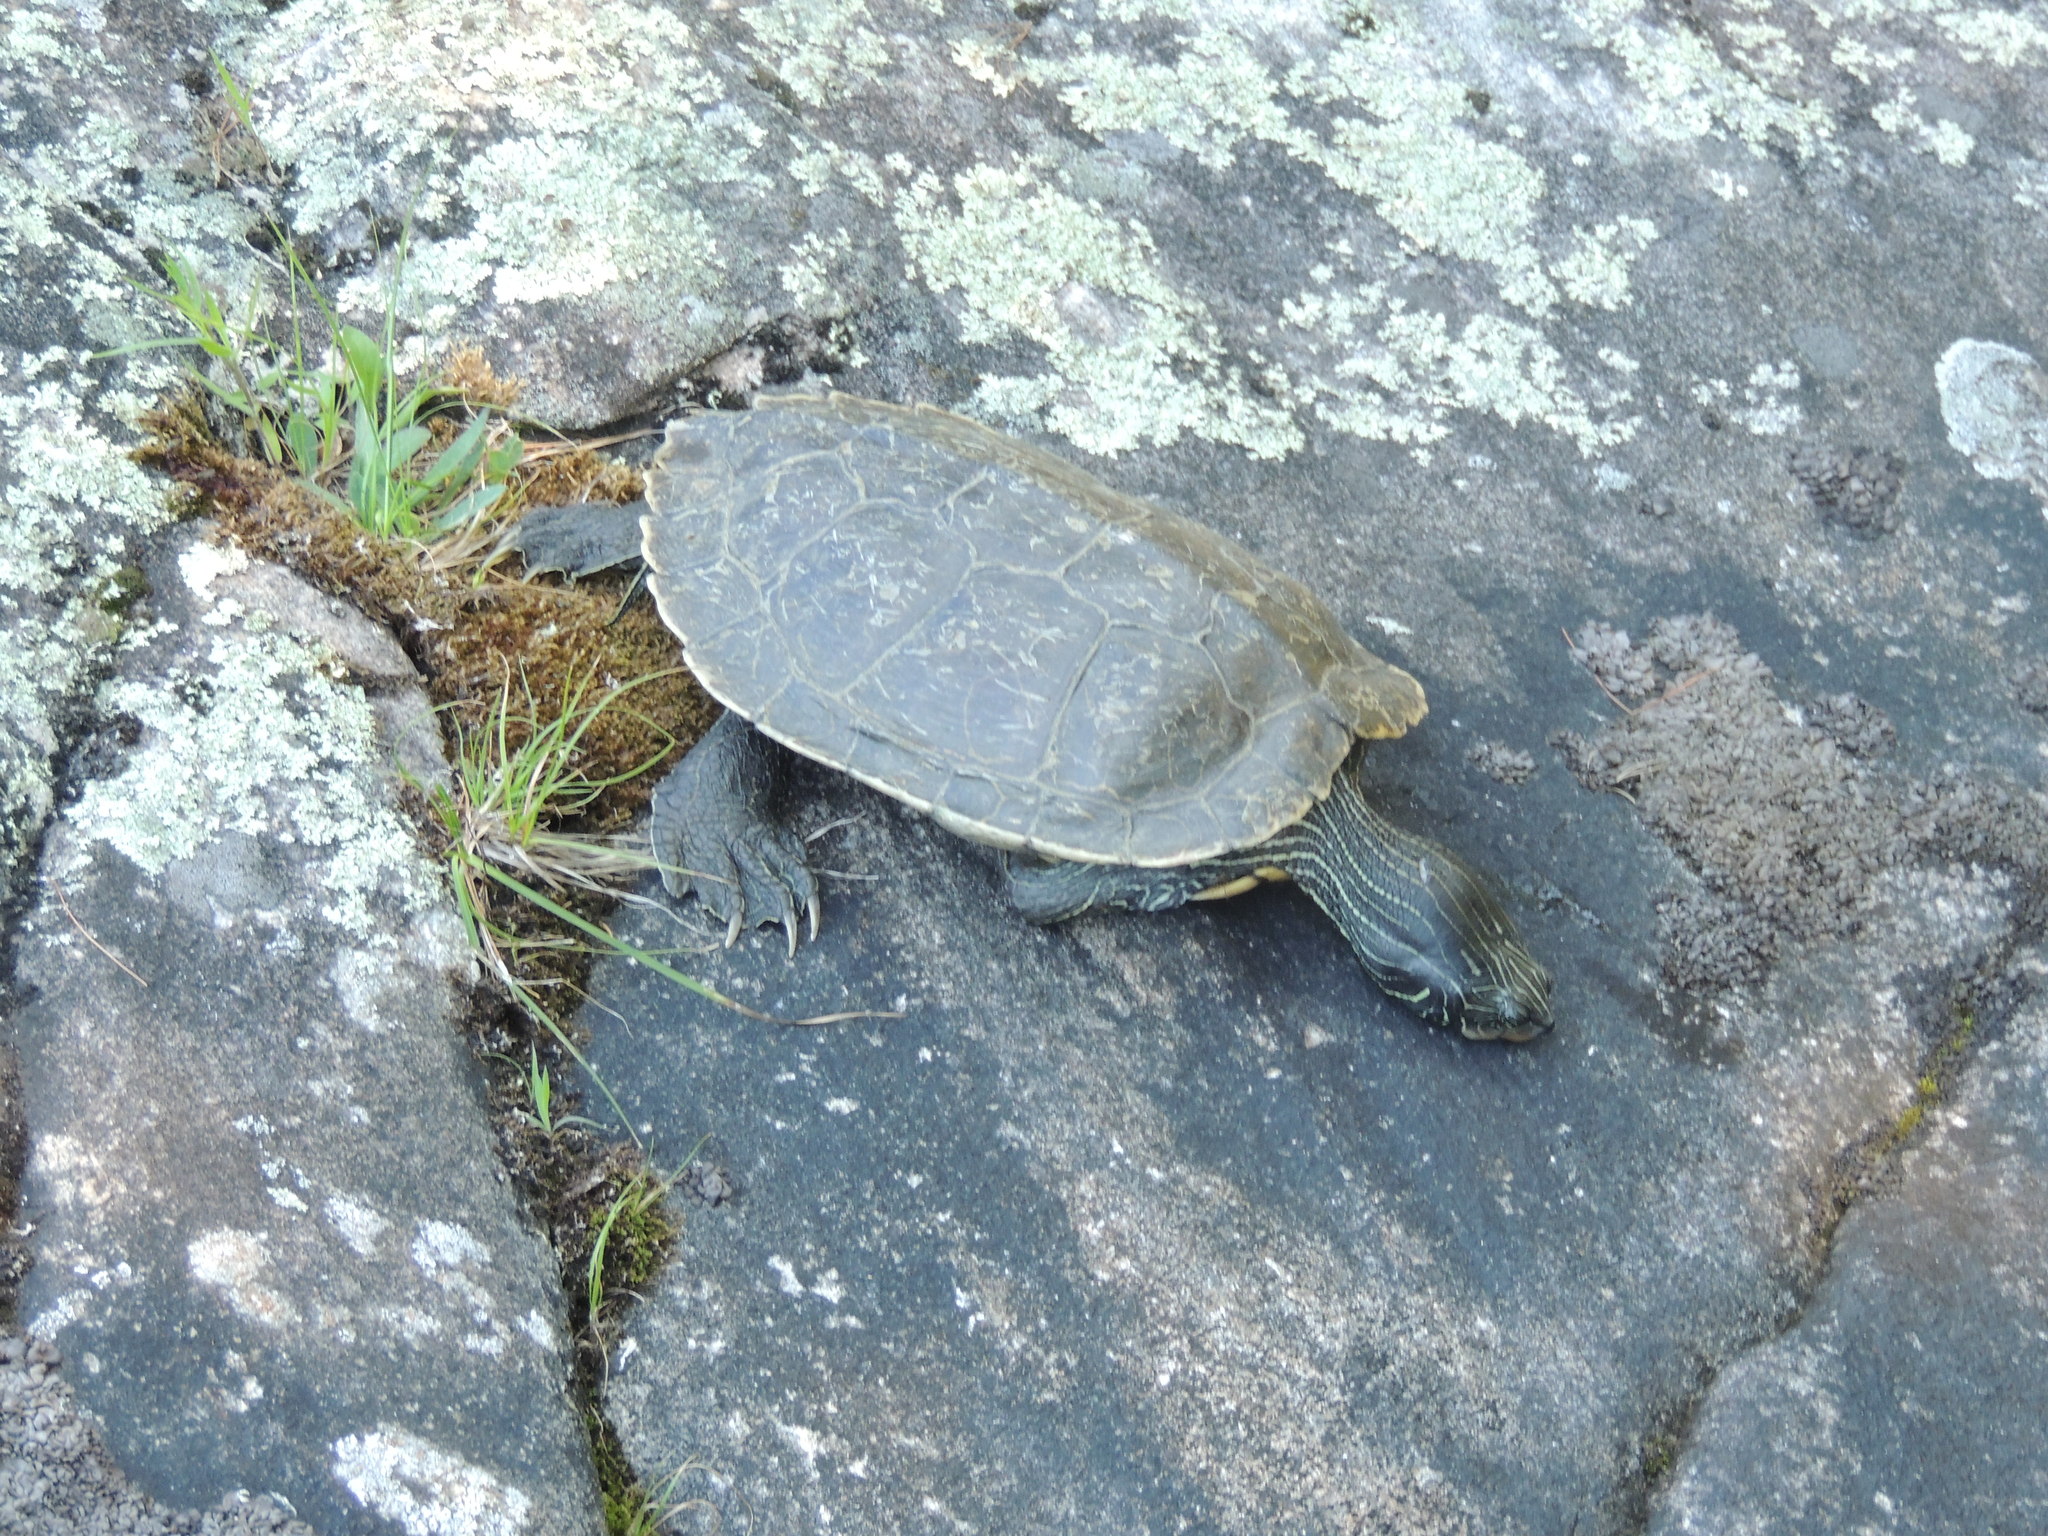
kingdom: Animalia
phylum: Chordata
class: Testudines
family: Emydidae
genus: Graptemys
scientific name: Graptemys geographica
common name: Common map turtle
